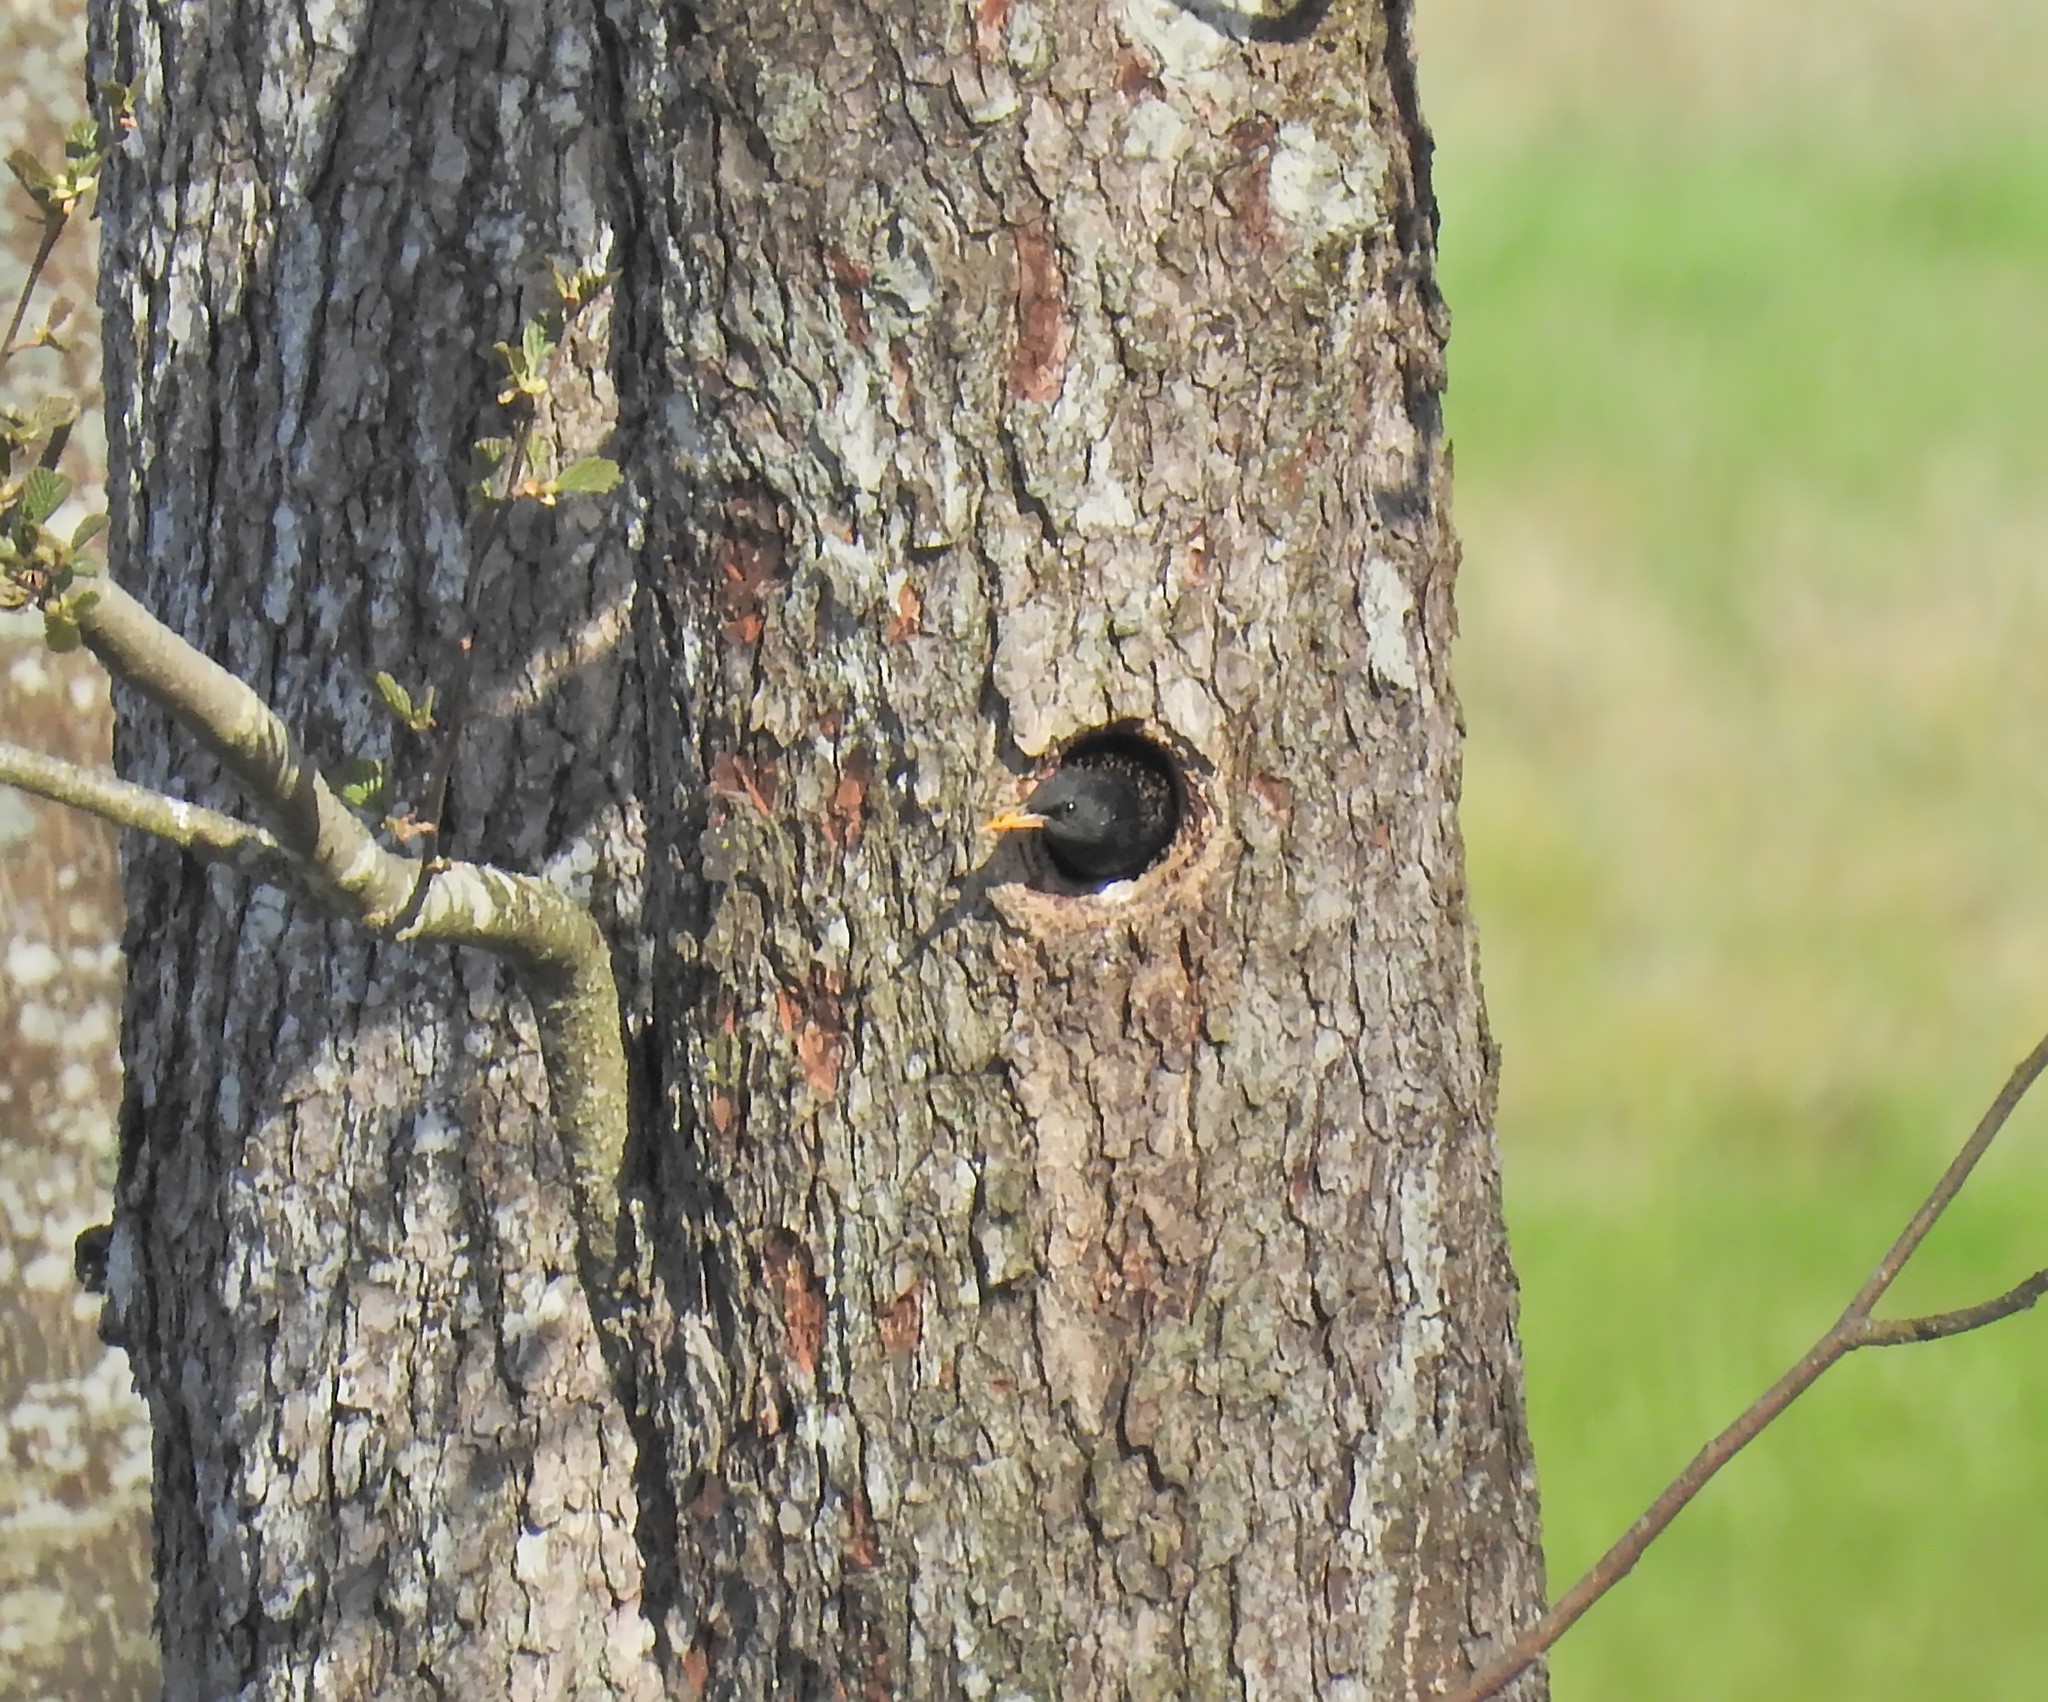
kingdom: Animalia
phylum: Chordata
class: Aves
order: Passeriformes
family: Sturnidae
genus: Sturnus
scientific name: Sturnus vulgaris
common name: Common starling
